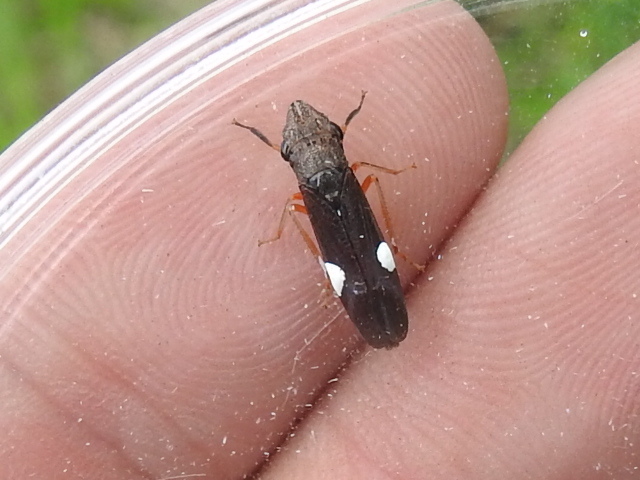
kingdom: Animalia
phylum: Arthropoda
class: Insecta
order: Hemiptera
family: Cicadellidae
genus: Homalodisca
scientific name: Homalodisca insolita
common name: Johnson grass sharpshooter
